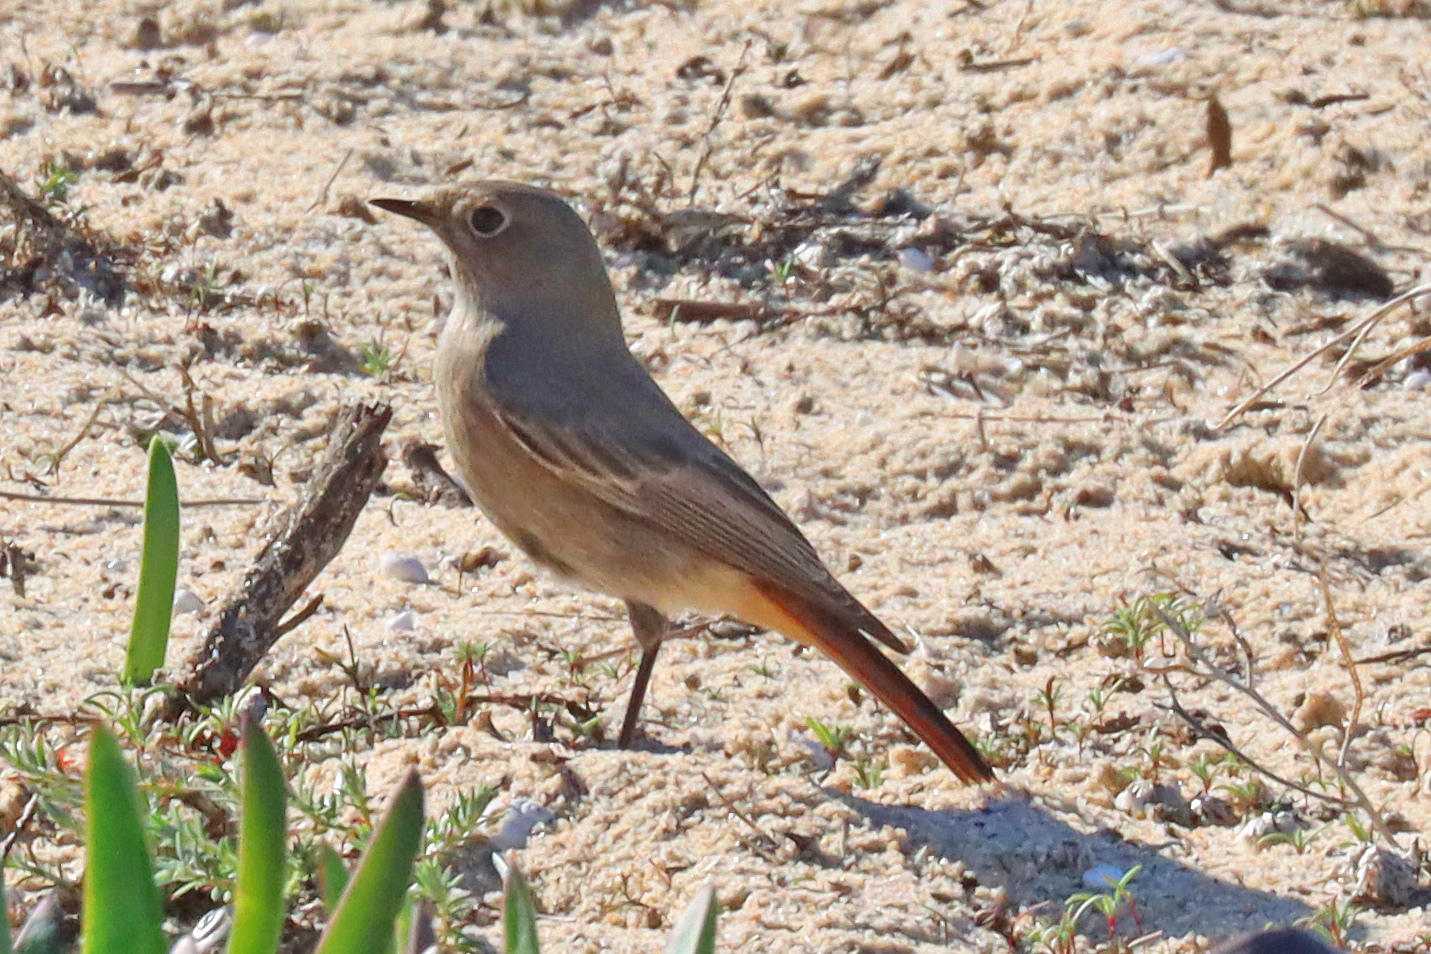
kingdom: Animalia
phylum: Chordata
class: Aves
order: Passeriformes
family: Muscicapidae
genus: Phoenicurus
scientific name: Phoenicurus ochruros
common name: Black redstart
